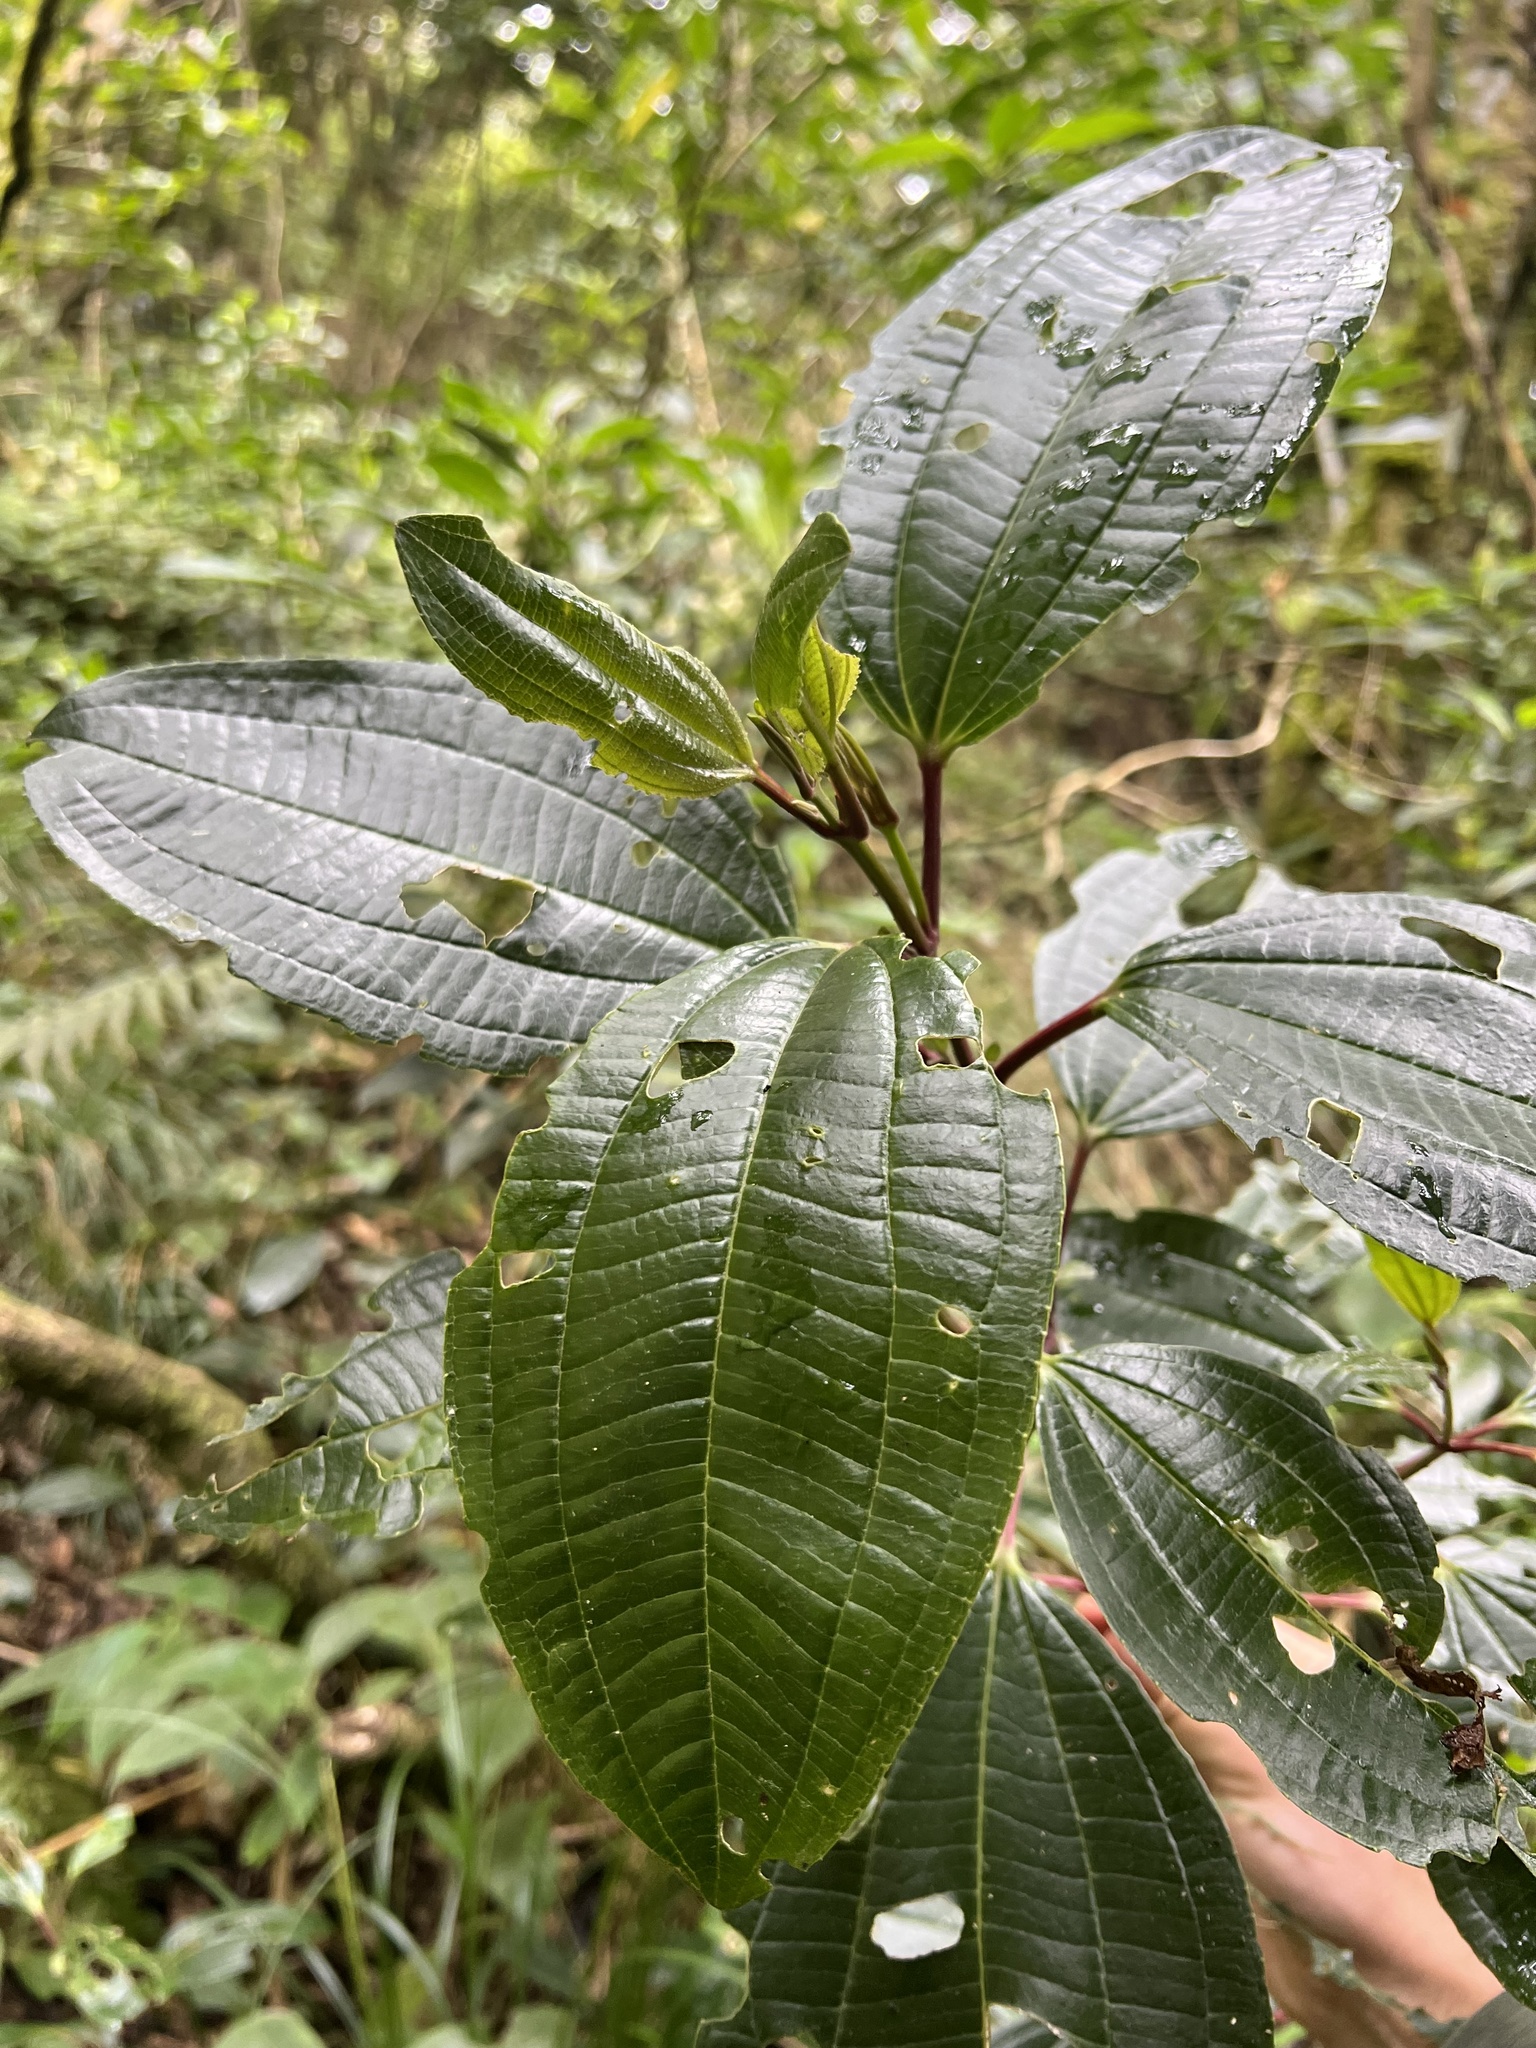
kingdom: Plantae
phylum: Tracheophyta
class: Magnoliopsida
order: Myrtales
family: Melastomataceae
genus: Axinaea
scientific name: Axinaea macrophylla
